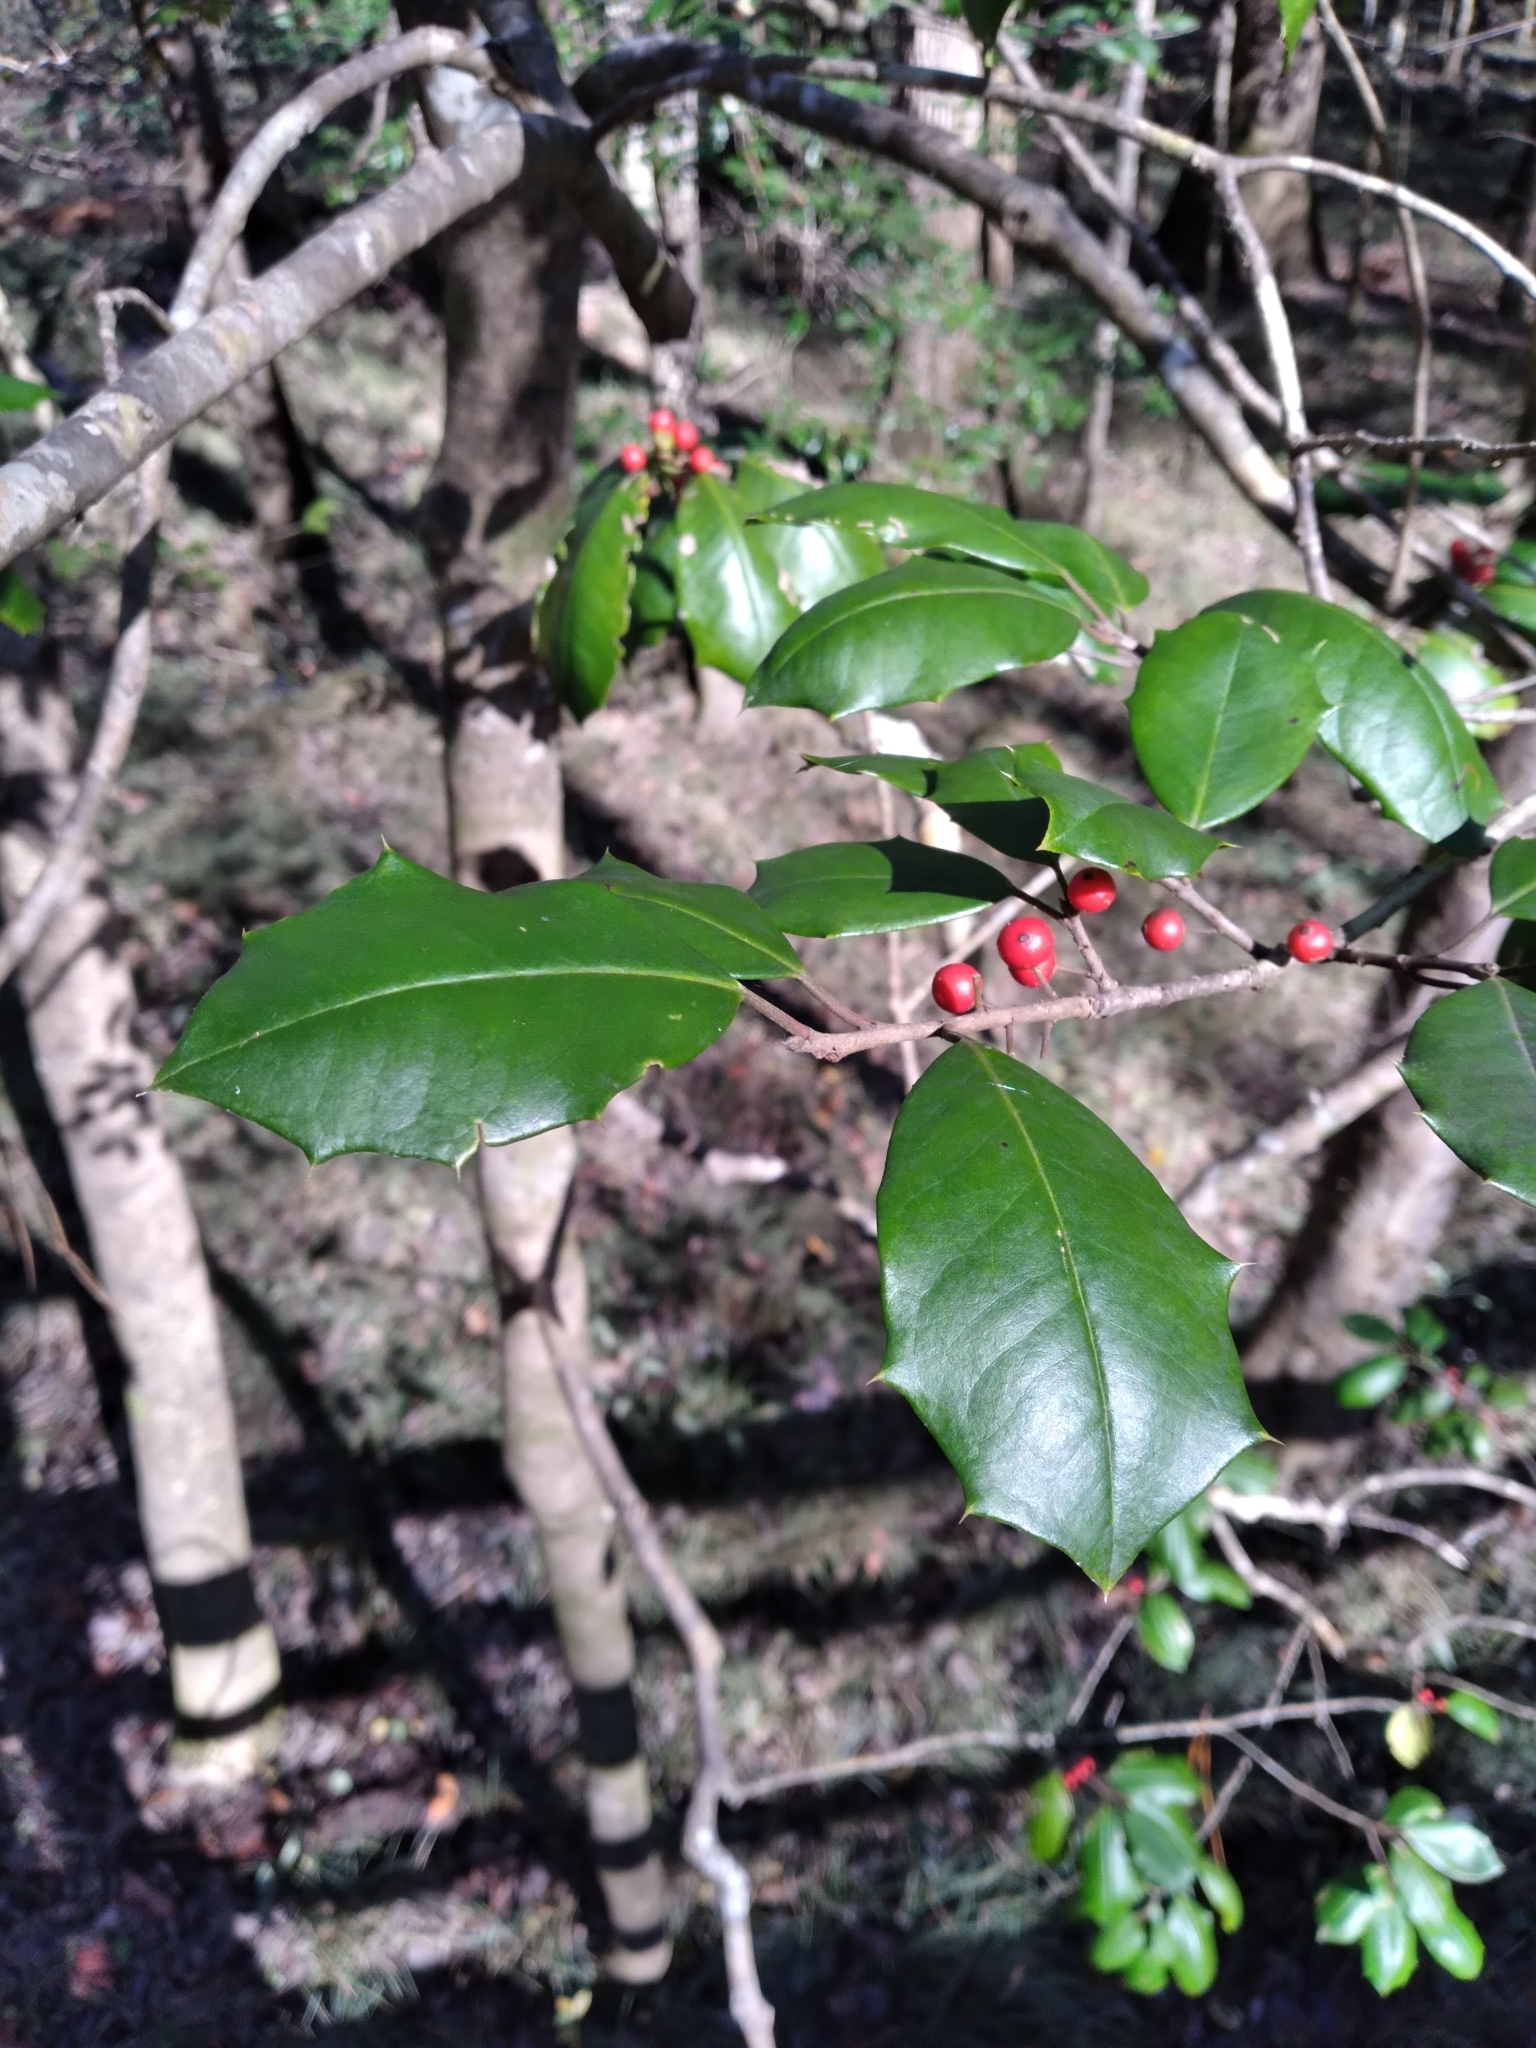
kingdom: Plantae
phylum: Tracheophyta
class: Magnoliopsida
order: Aquifoliales
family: Aquifoliaceae
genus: Ilex
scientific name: Ilex opaca
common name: American holly
